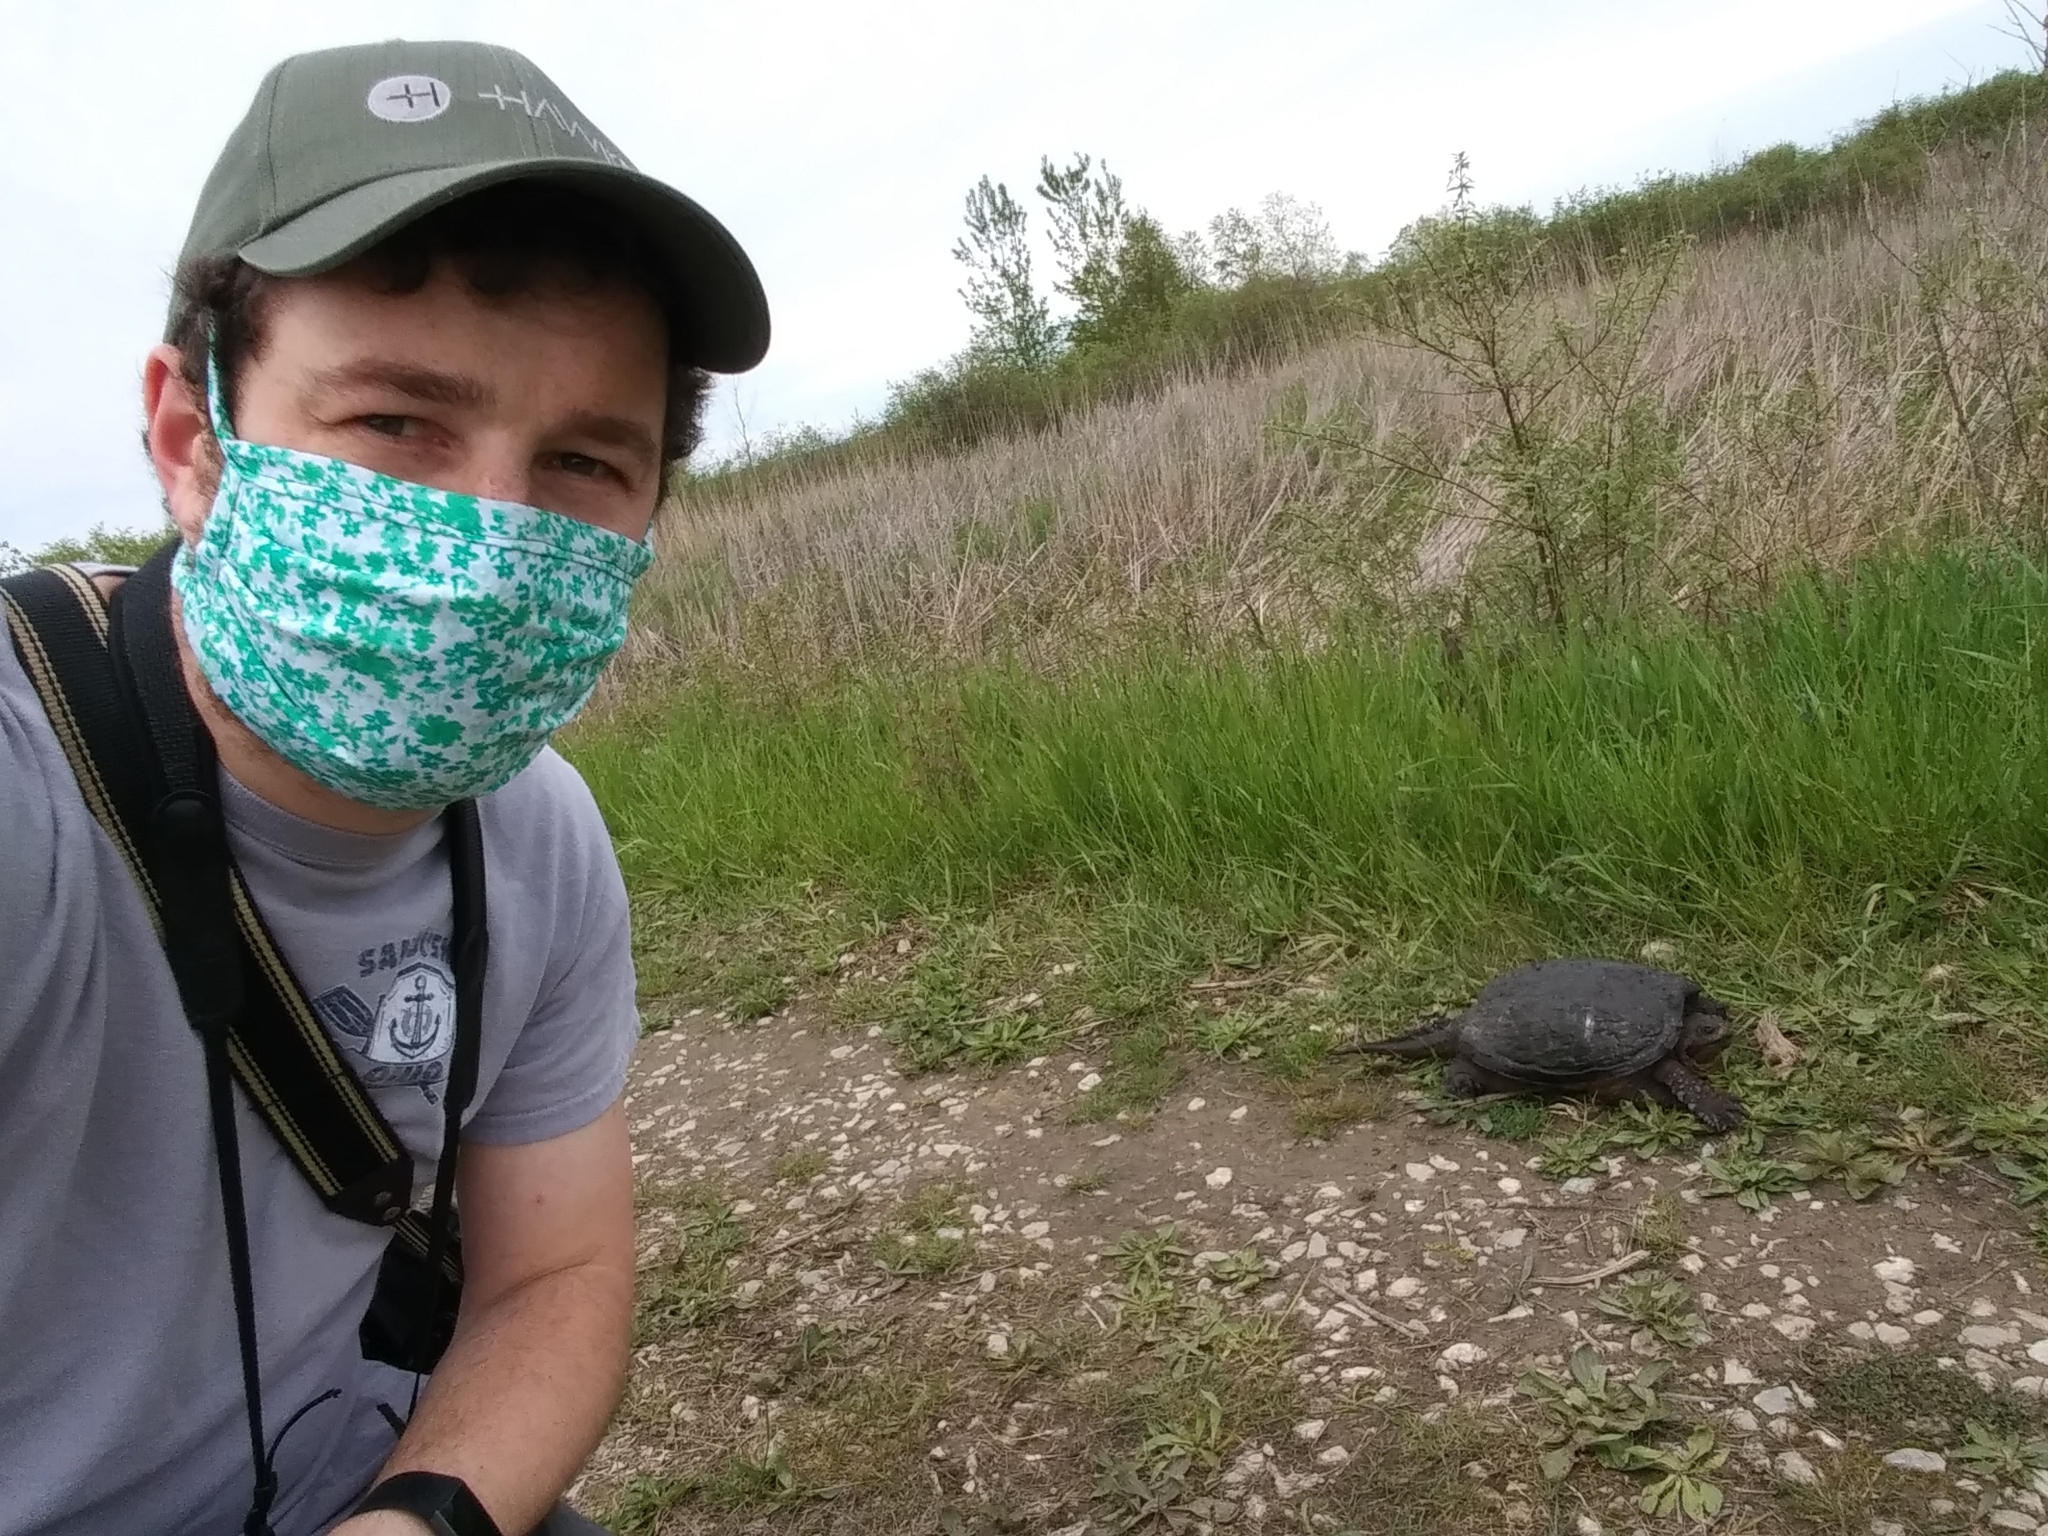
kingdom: Animalia
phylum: Chordata
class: Testudines
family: Chelydridae
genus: Chelydra
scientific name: Chelydra serpentina
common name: Common snapping turtle
